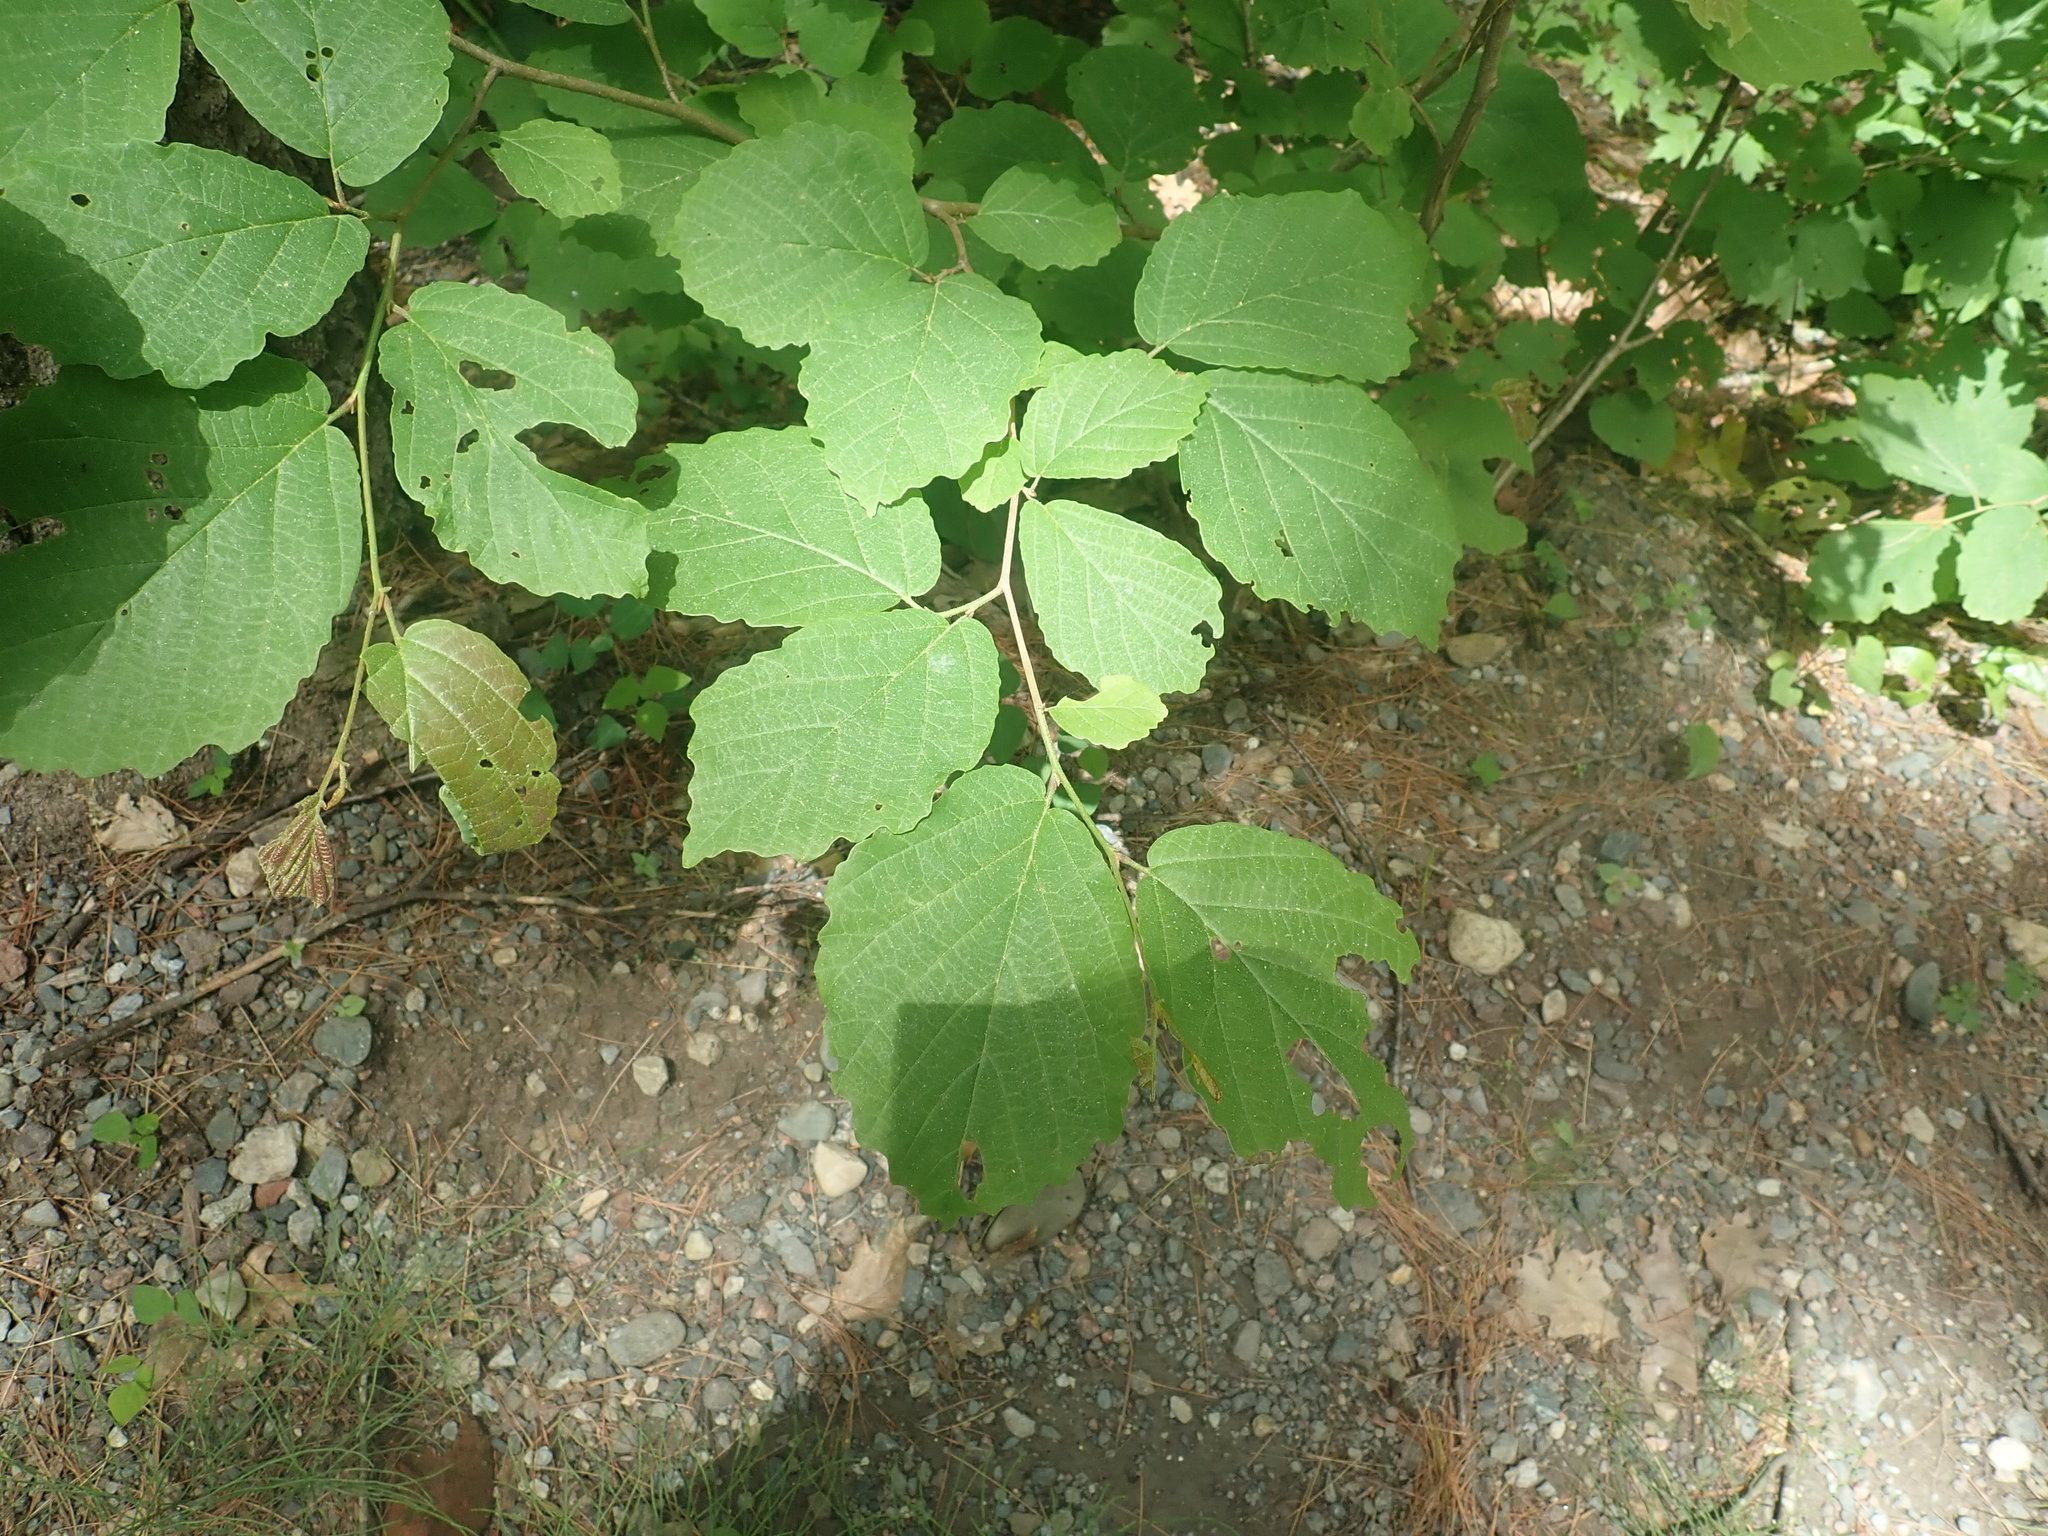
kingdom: Plantae
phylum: Tracheophyta
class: Magnoliopsida
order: Saxifragales
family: Hamamelidaceae
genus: Hamamelis
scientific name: Hamamelis virginiana
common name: Witch-hazel
